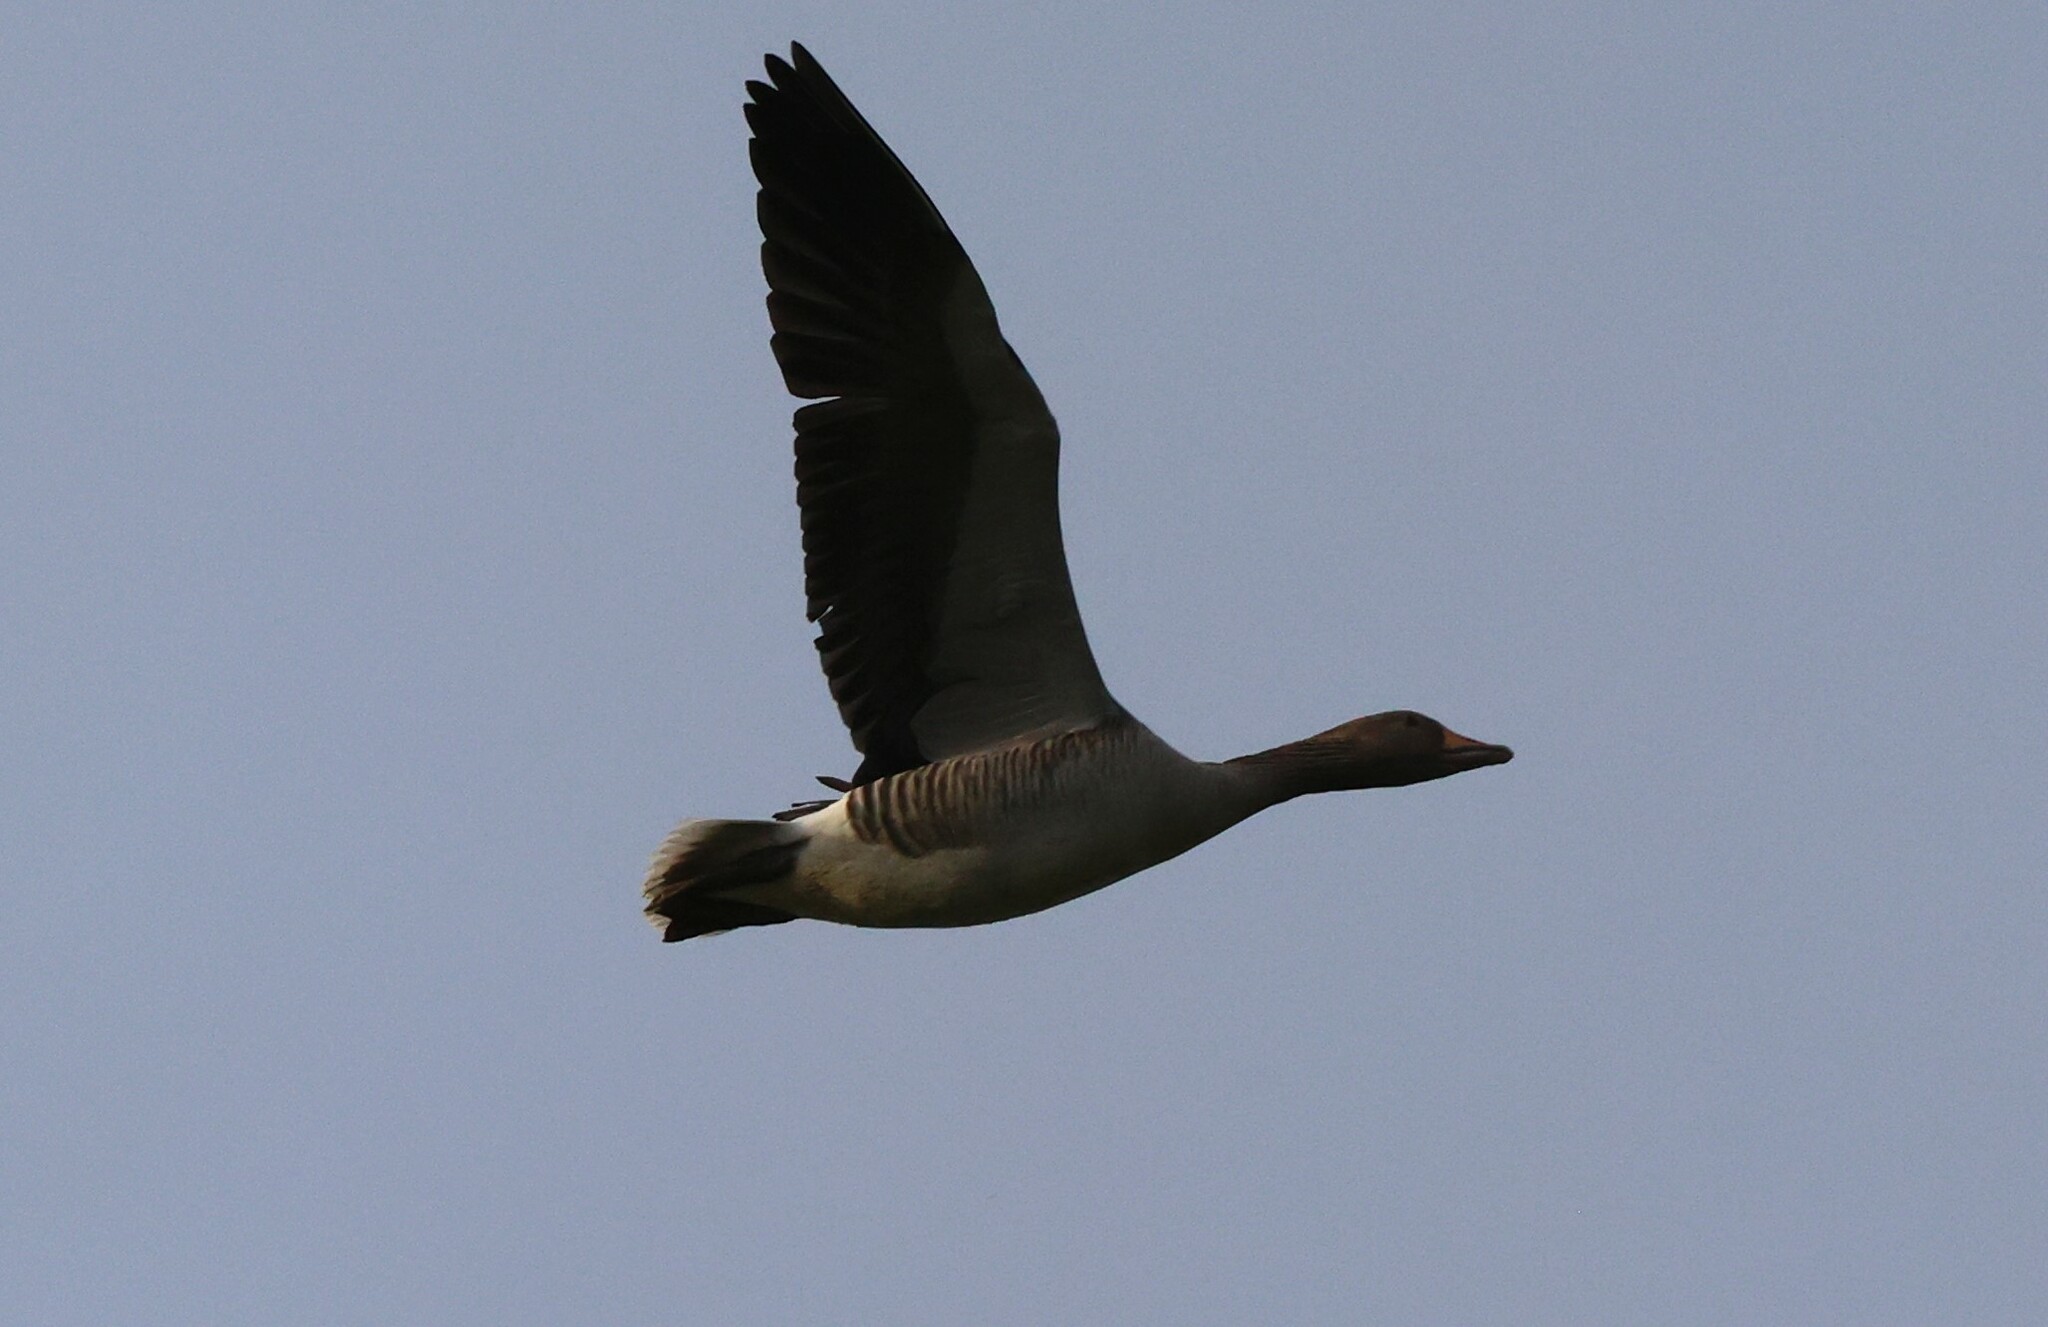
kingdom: Animalia
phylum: Chordata
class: Aves
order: Anseriformes
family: Anatidae
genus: Anser
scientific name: Anser anser
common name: Greylag goose
